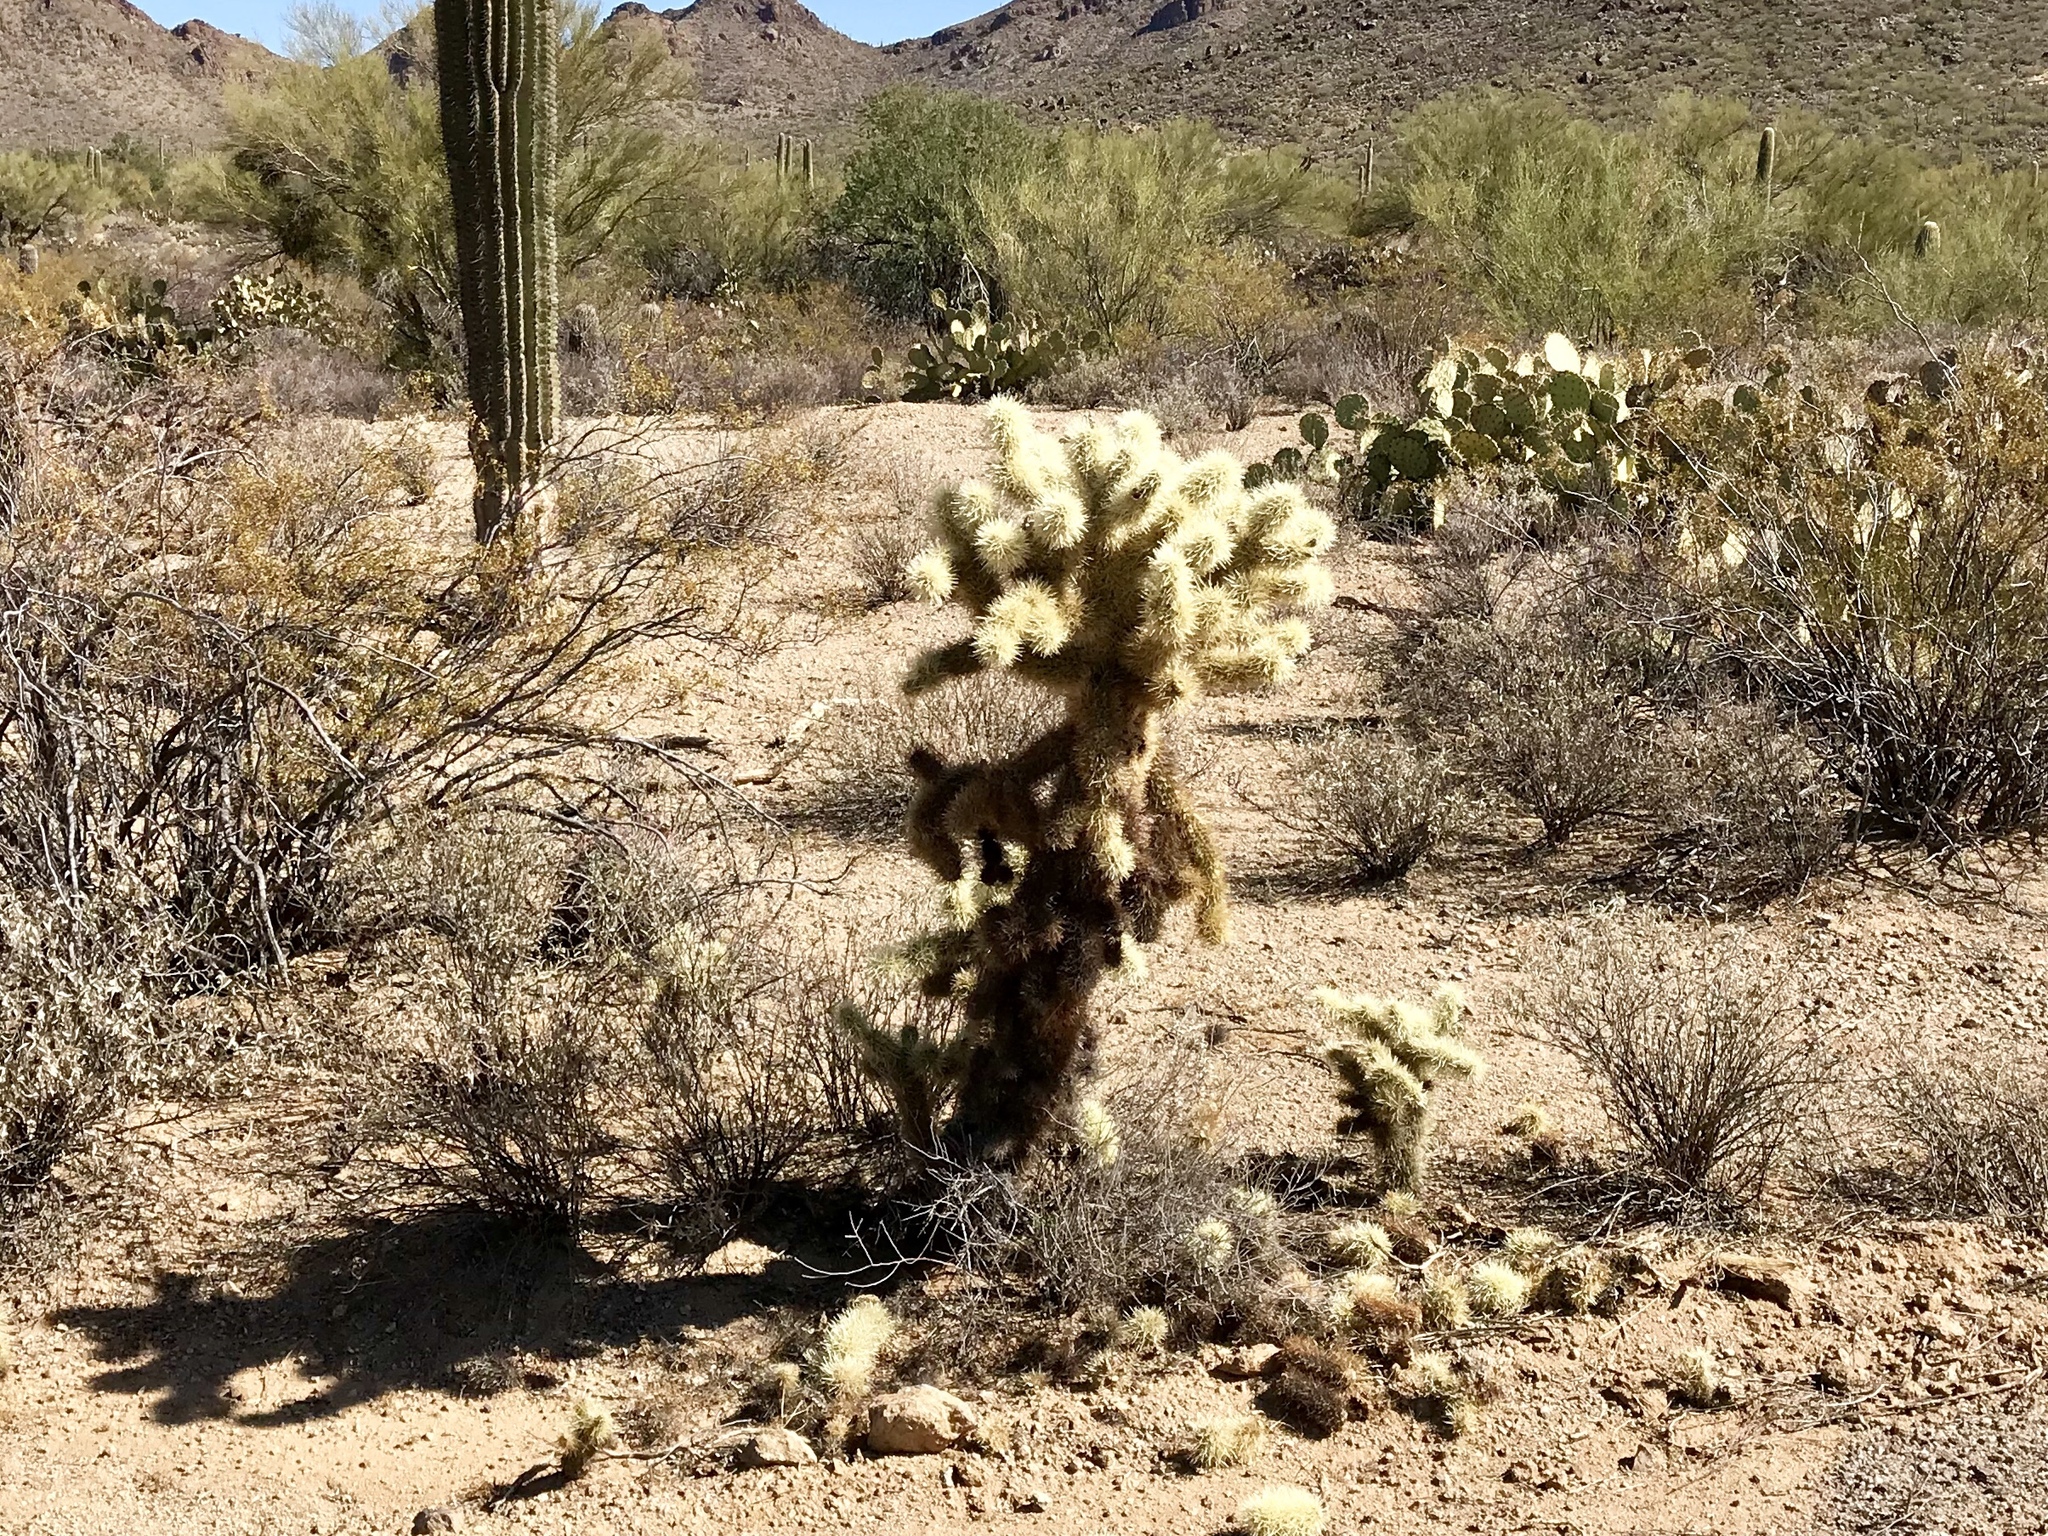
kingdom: Plantae
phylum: Tracheophyta
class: Magnoliopsida
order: Caryophyllales
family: Cactaceae
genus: Cylindropuntia
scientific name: Cylindropuntia fosbergii
